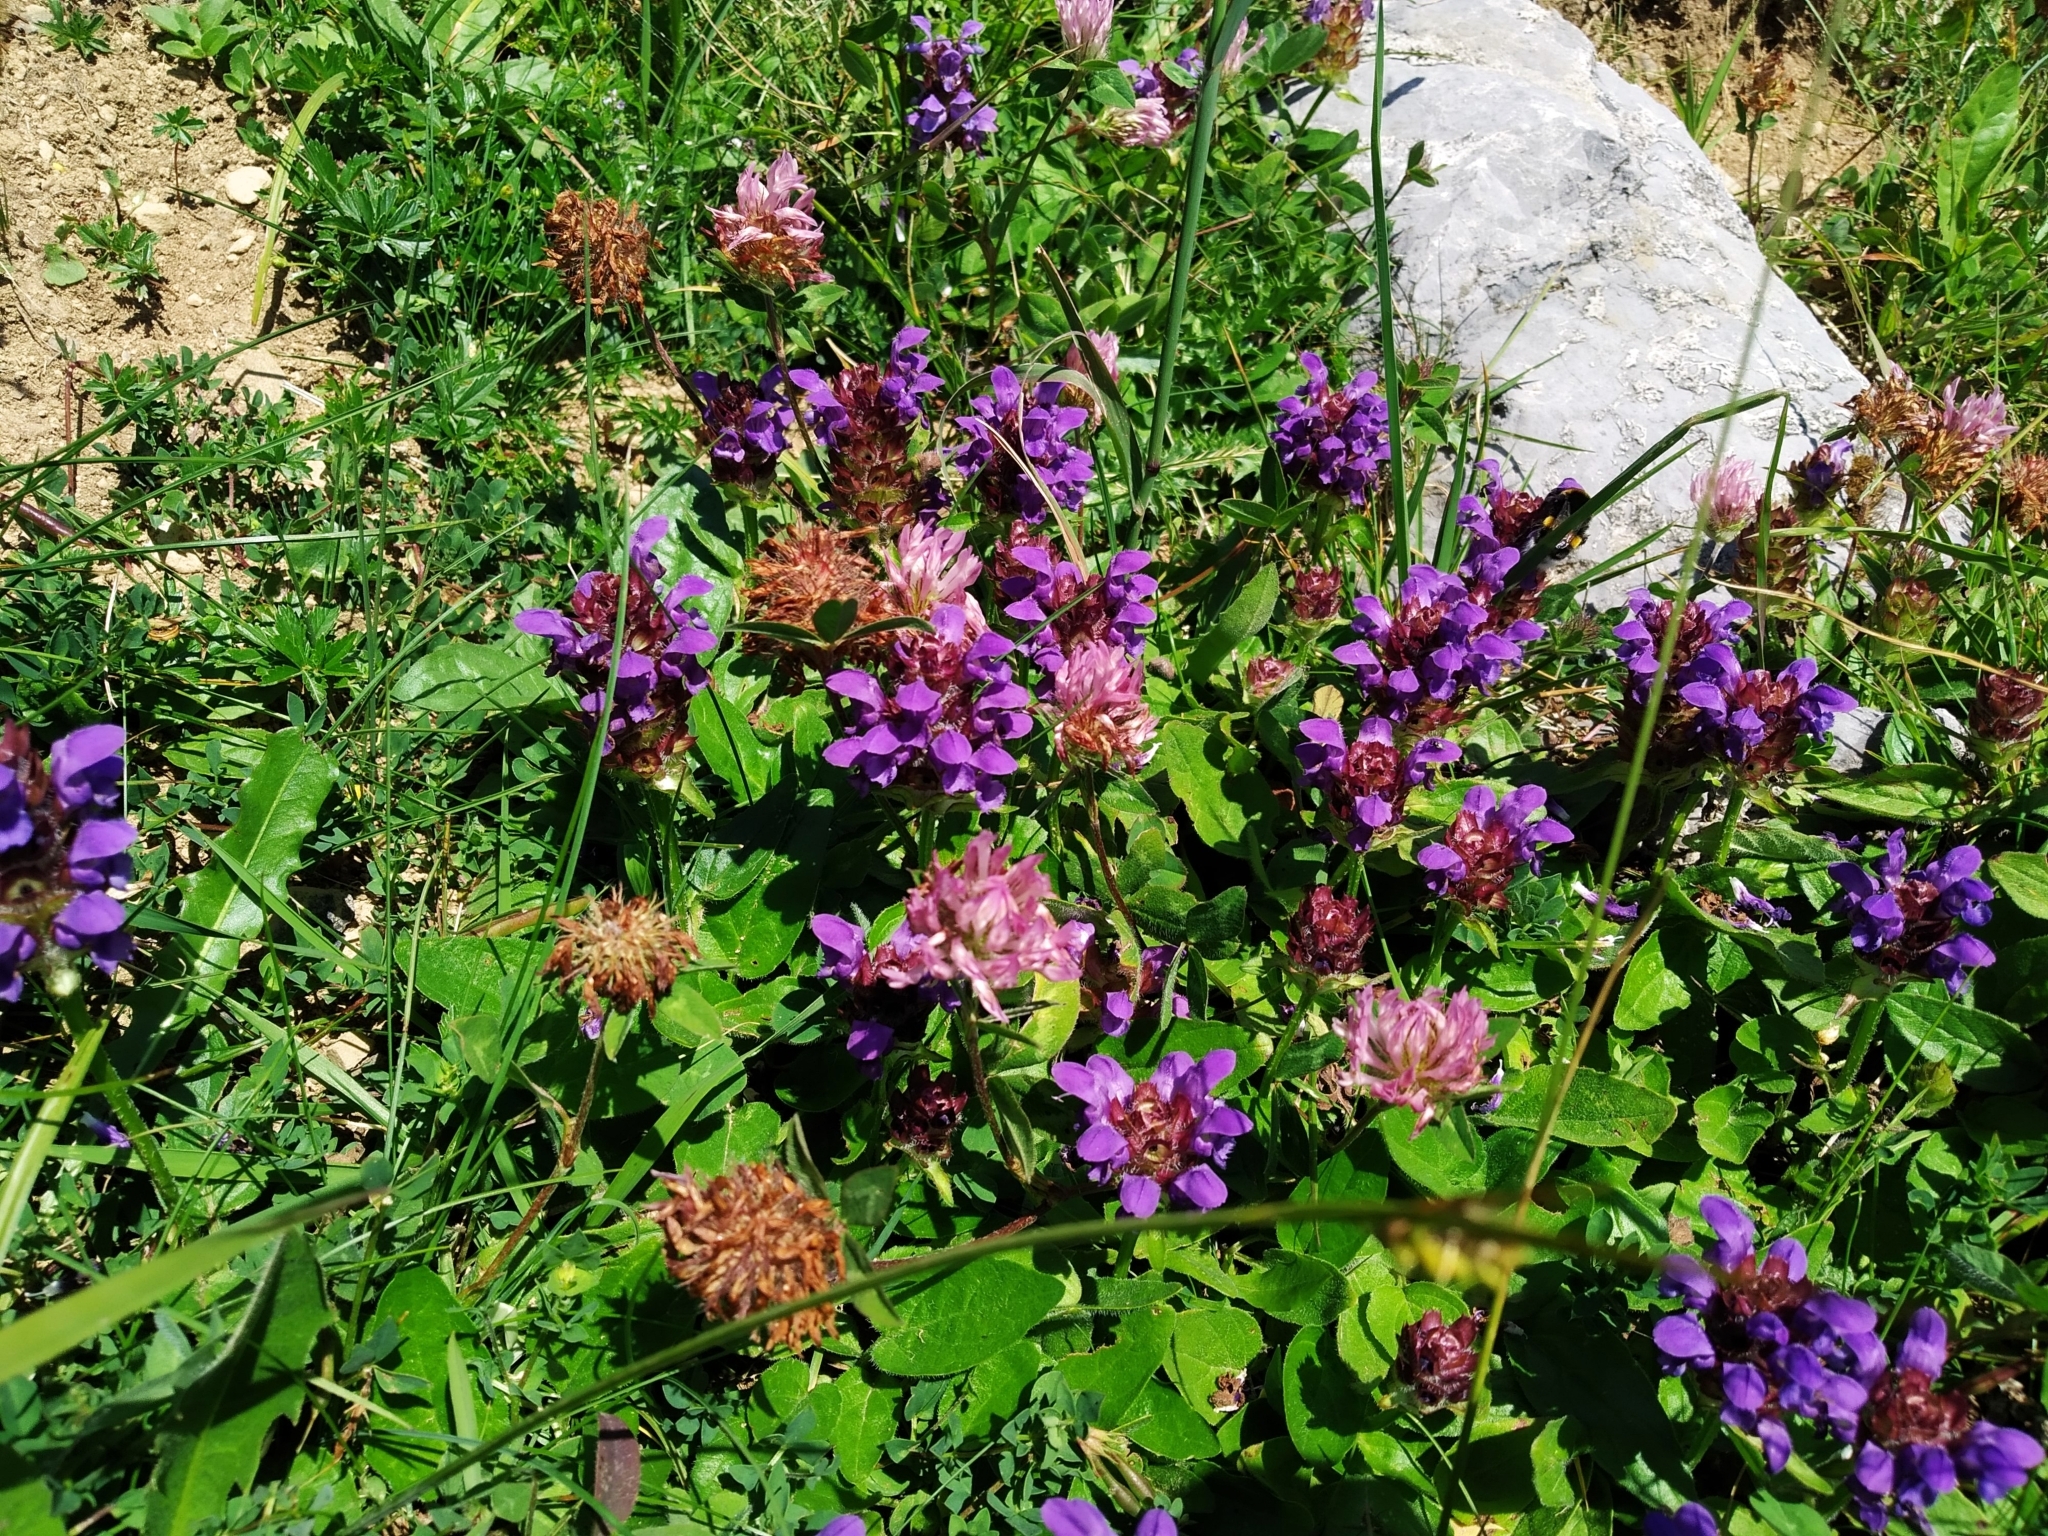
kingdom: Plantae
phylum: Tracheophyta
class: Magnoliopsida
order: Lamiales
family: Lamiaceae
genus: Prunella
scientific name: Prunella grandiflora
